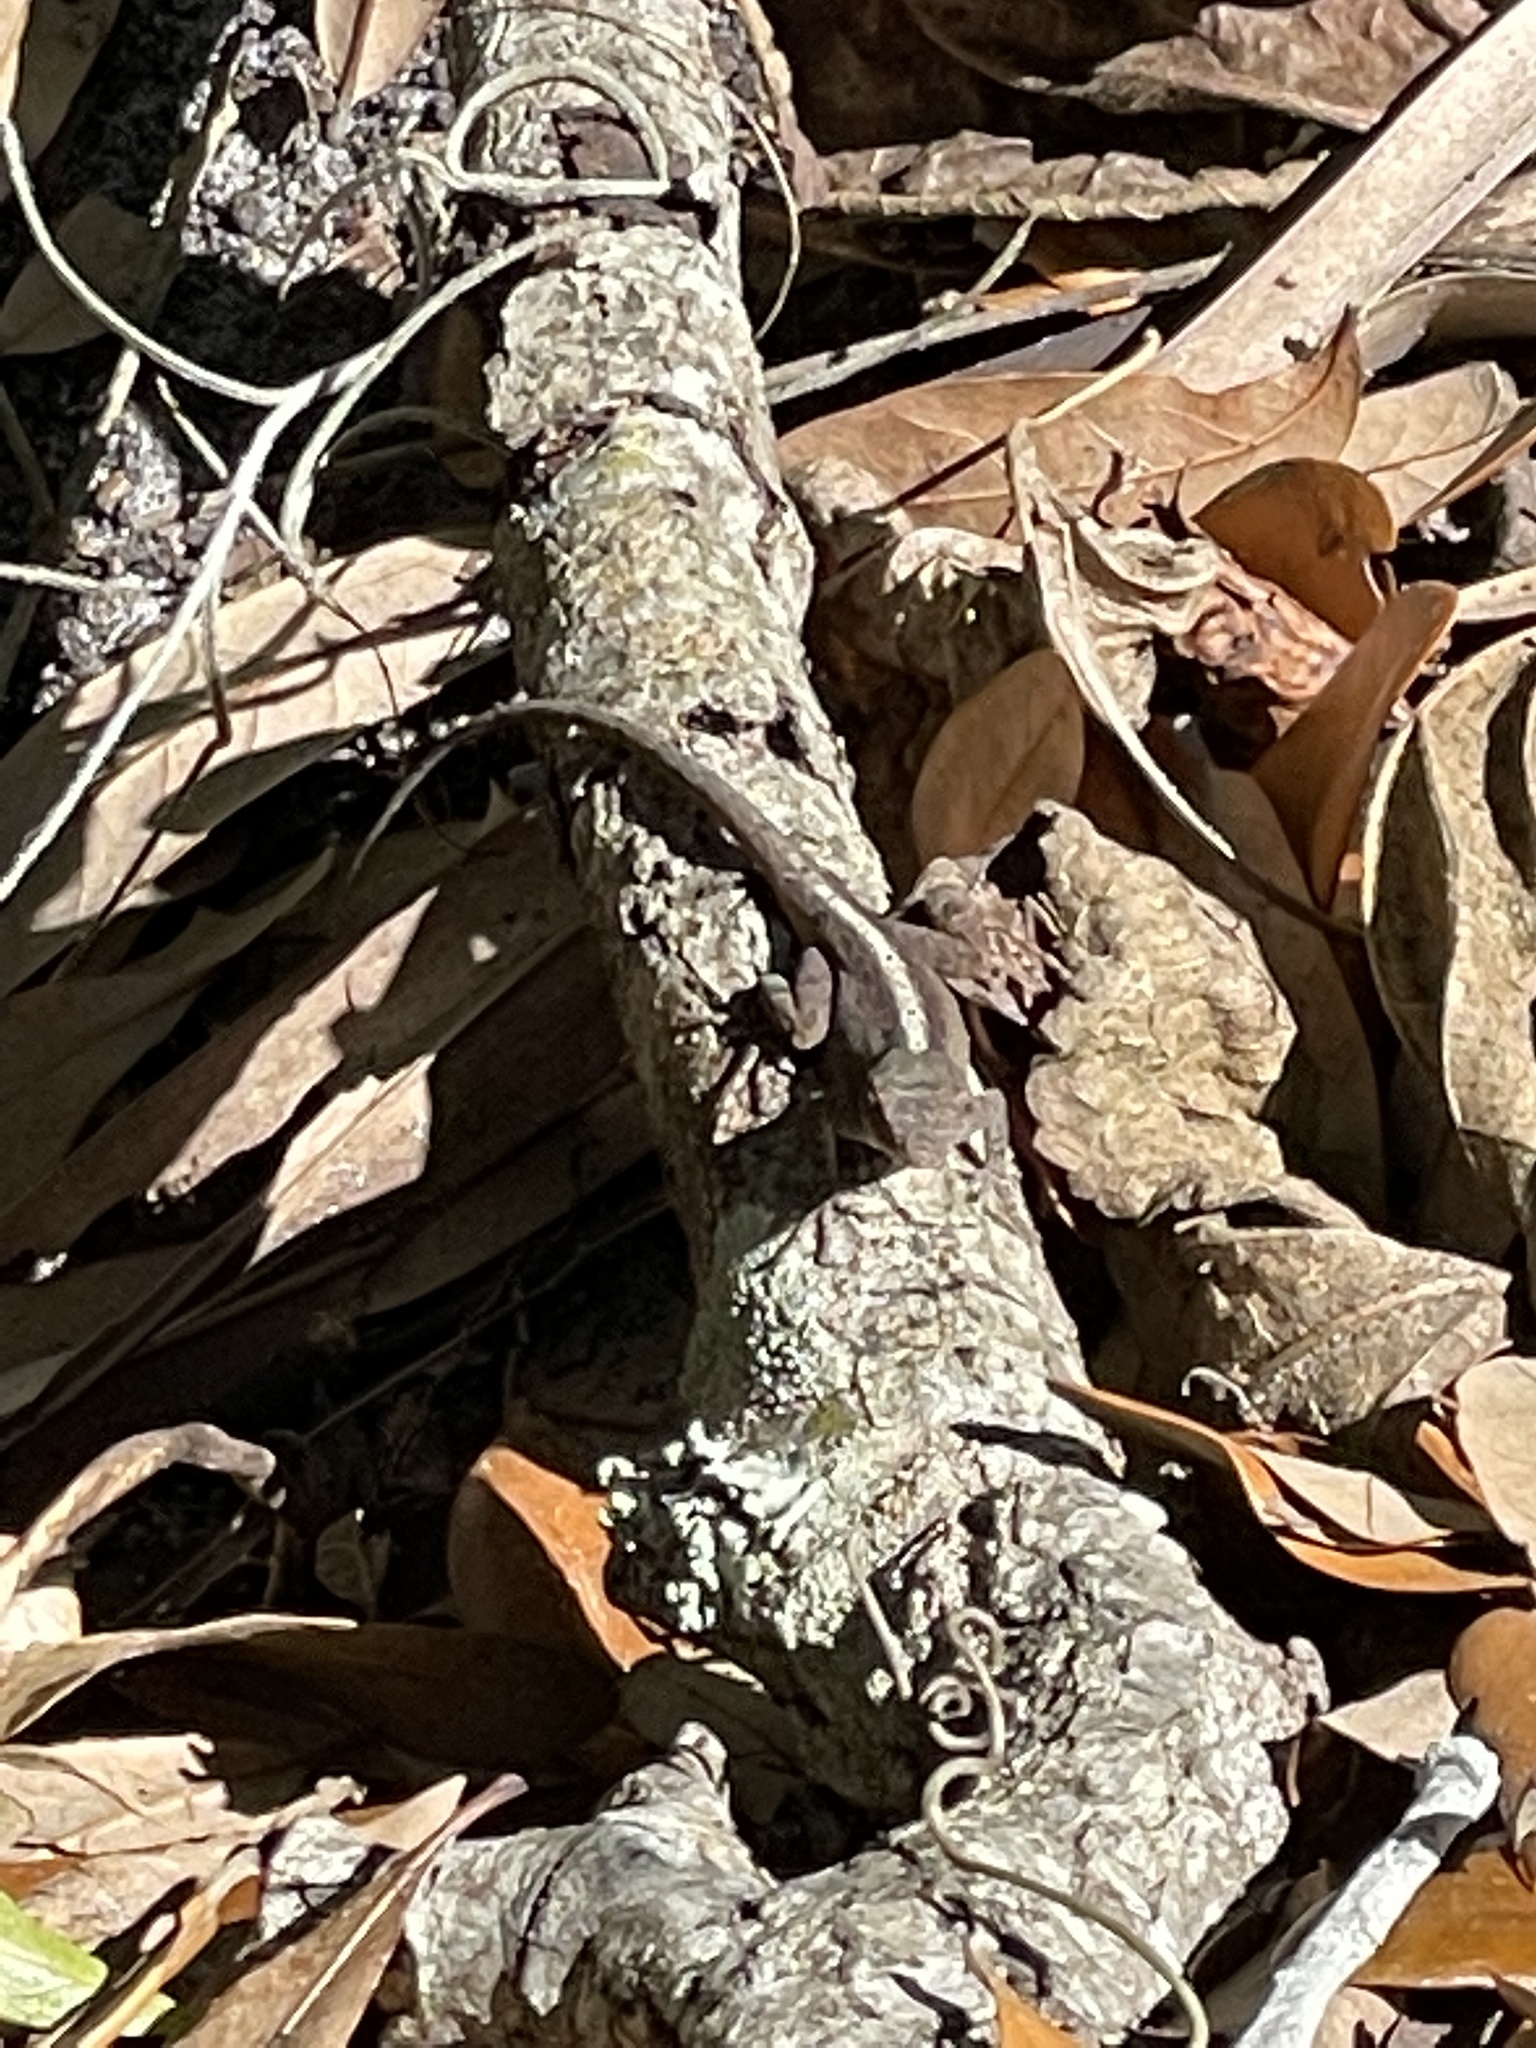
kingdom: Animalia
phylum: Chordata
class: Squamata
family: Dactyloidae
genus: Anolis
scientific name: Anolis sagrei
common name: Brown anole
